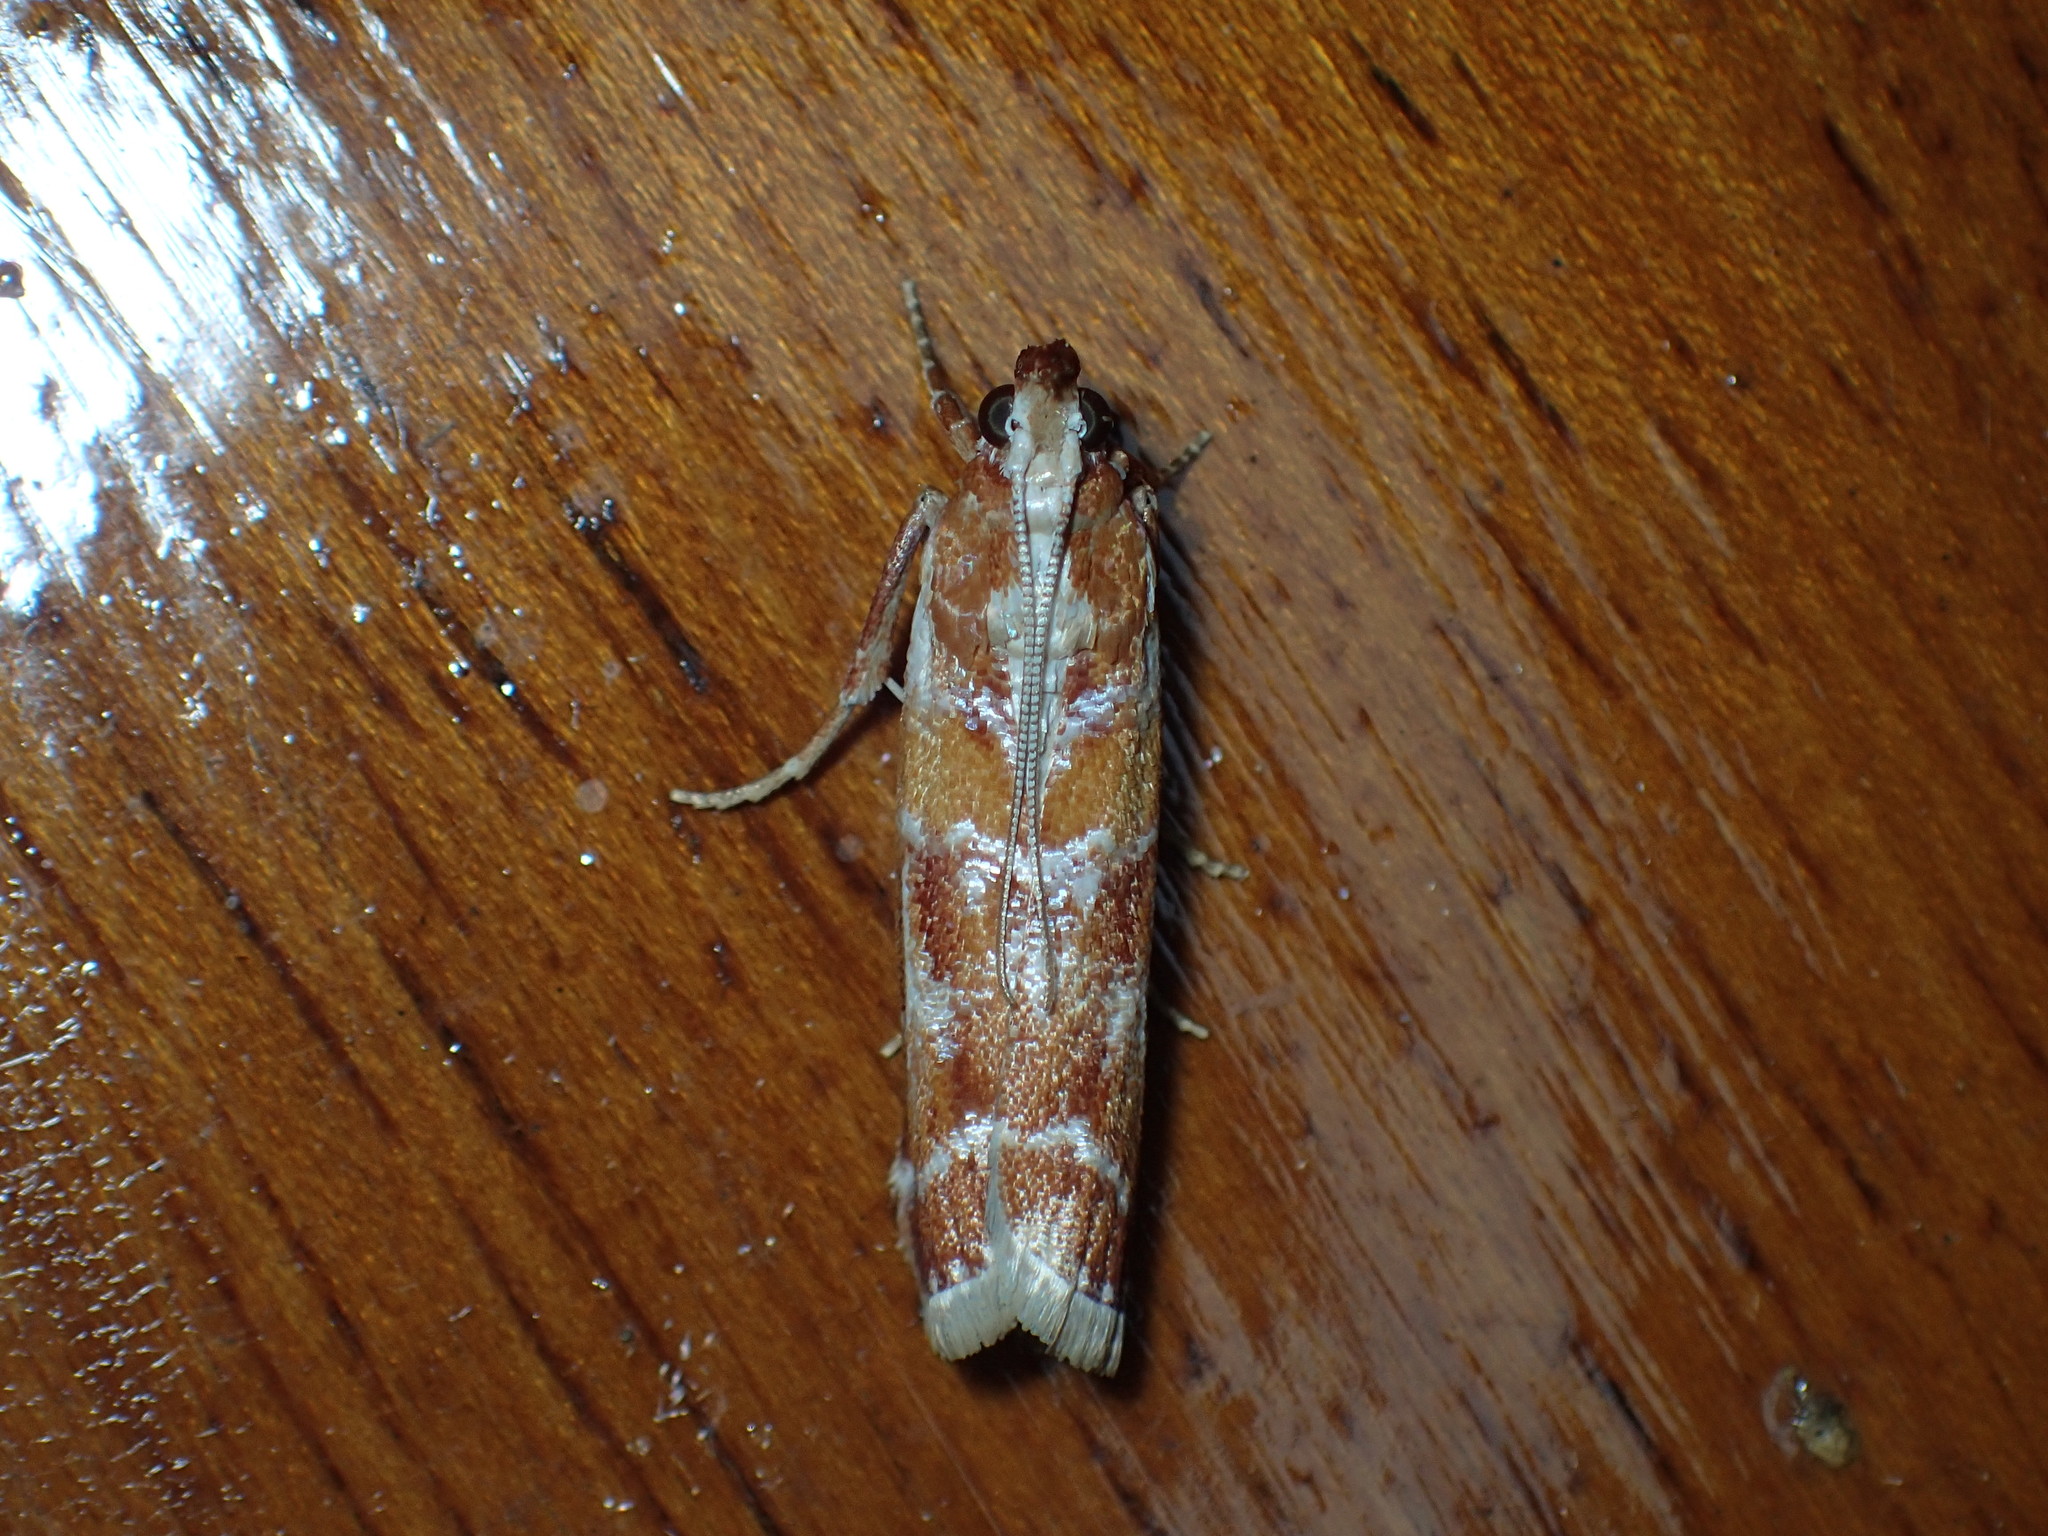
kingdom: Animalia
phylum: Arthropoda
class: Insecta
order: Lepidoptera
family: Pyralidae
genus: Dioryctria
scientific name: Dioryctria disclusa
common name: Rusty pine cone moth
